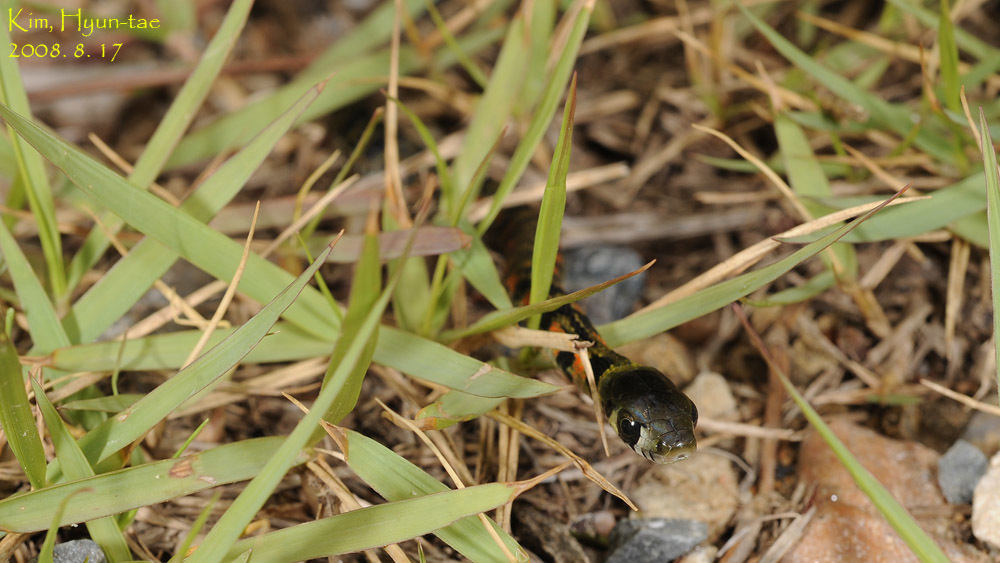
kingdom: Animalia
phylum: Chordata
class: Squamata
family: Colubridae
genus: Rhabdophis
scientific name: Rhabdophis tigrinus
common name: Tiger keelback
